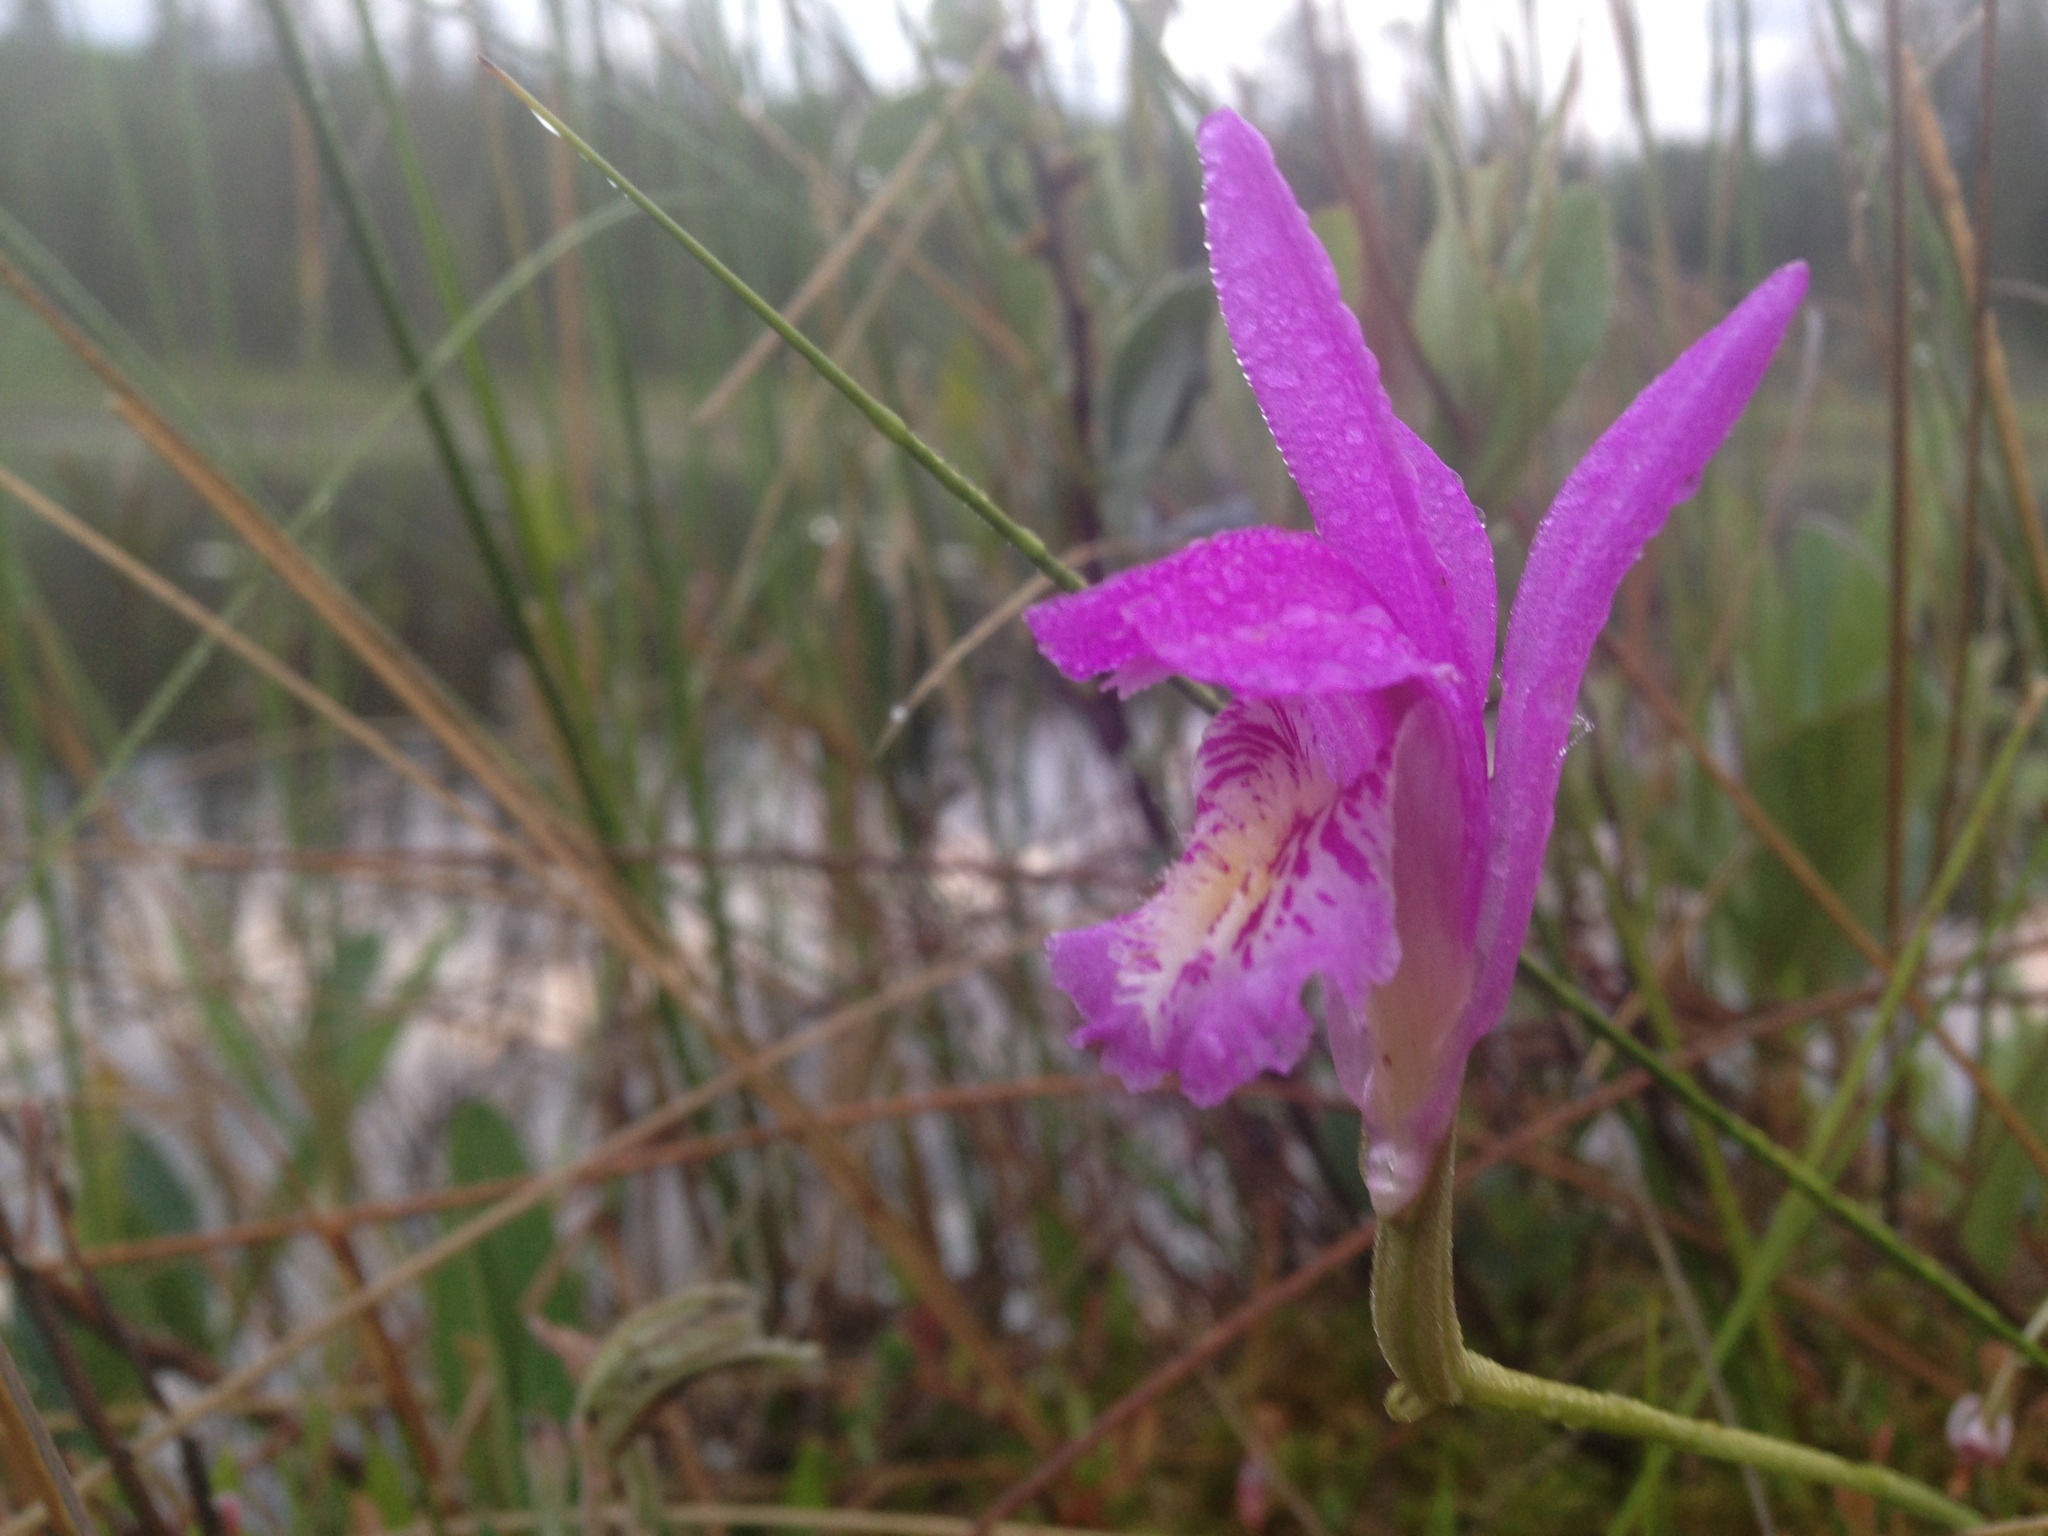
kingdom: Plantae
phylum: Tracheophyta
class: Liliopsida
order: Asparagales
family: Orchidaceae
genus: Arethusa
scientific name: Arethusa bulbosa
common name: Arethusa
